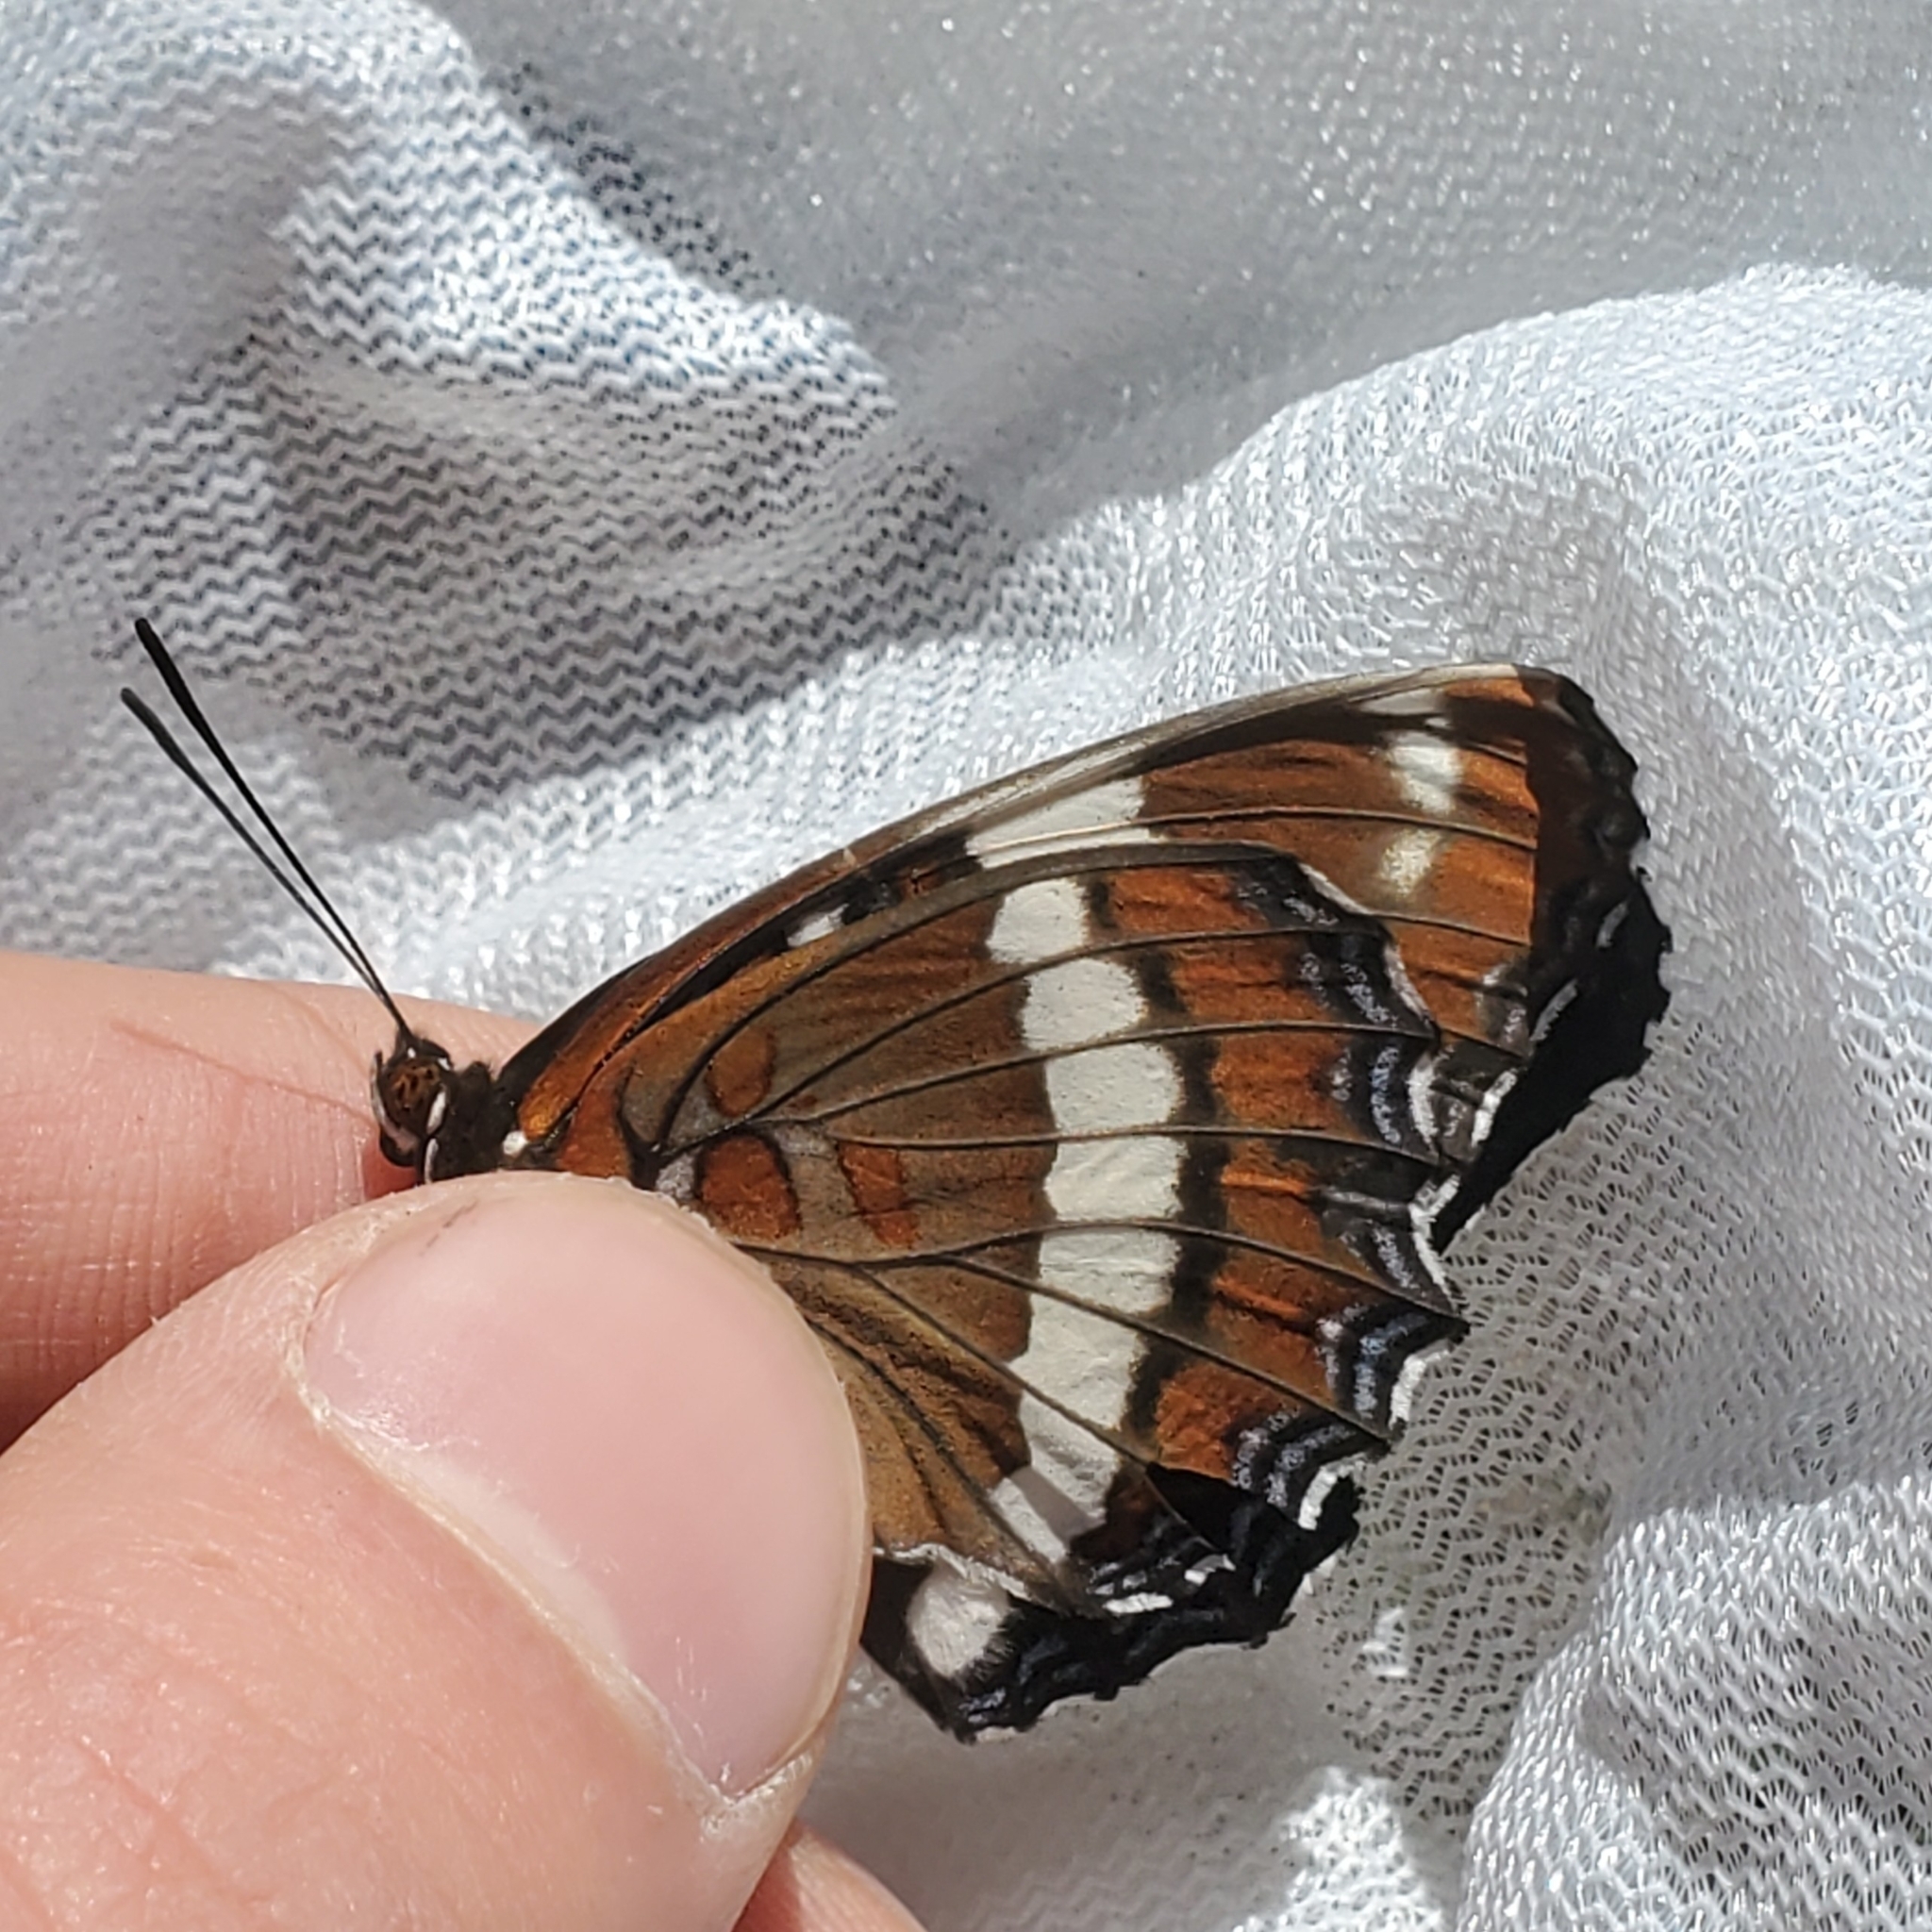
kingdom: Animalia
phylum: Arthropoda
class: Insecta
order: Lepidoptera
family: Nymphalidae
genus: Limenitis
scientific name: Limenitis arthemis
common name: Red-spotted admiral
